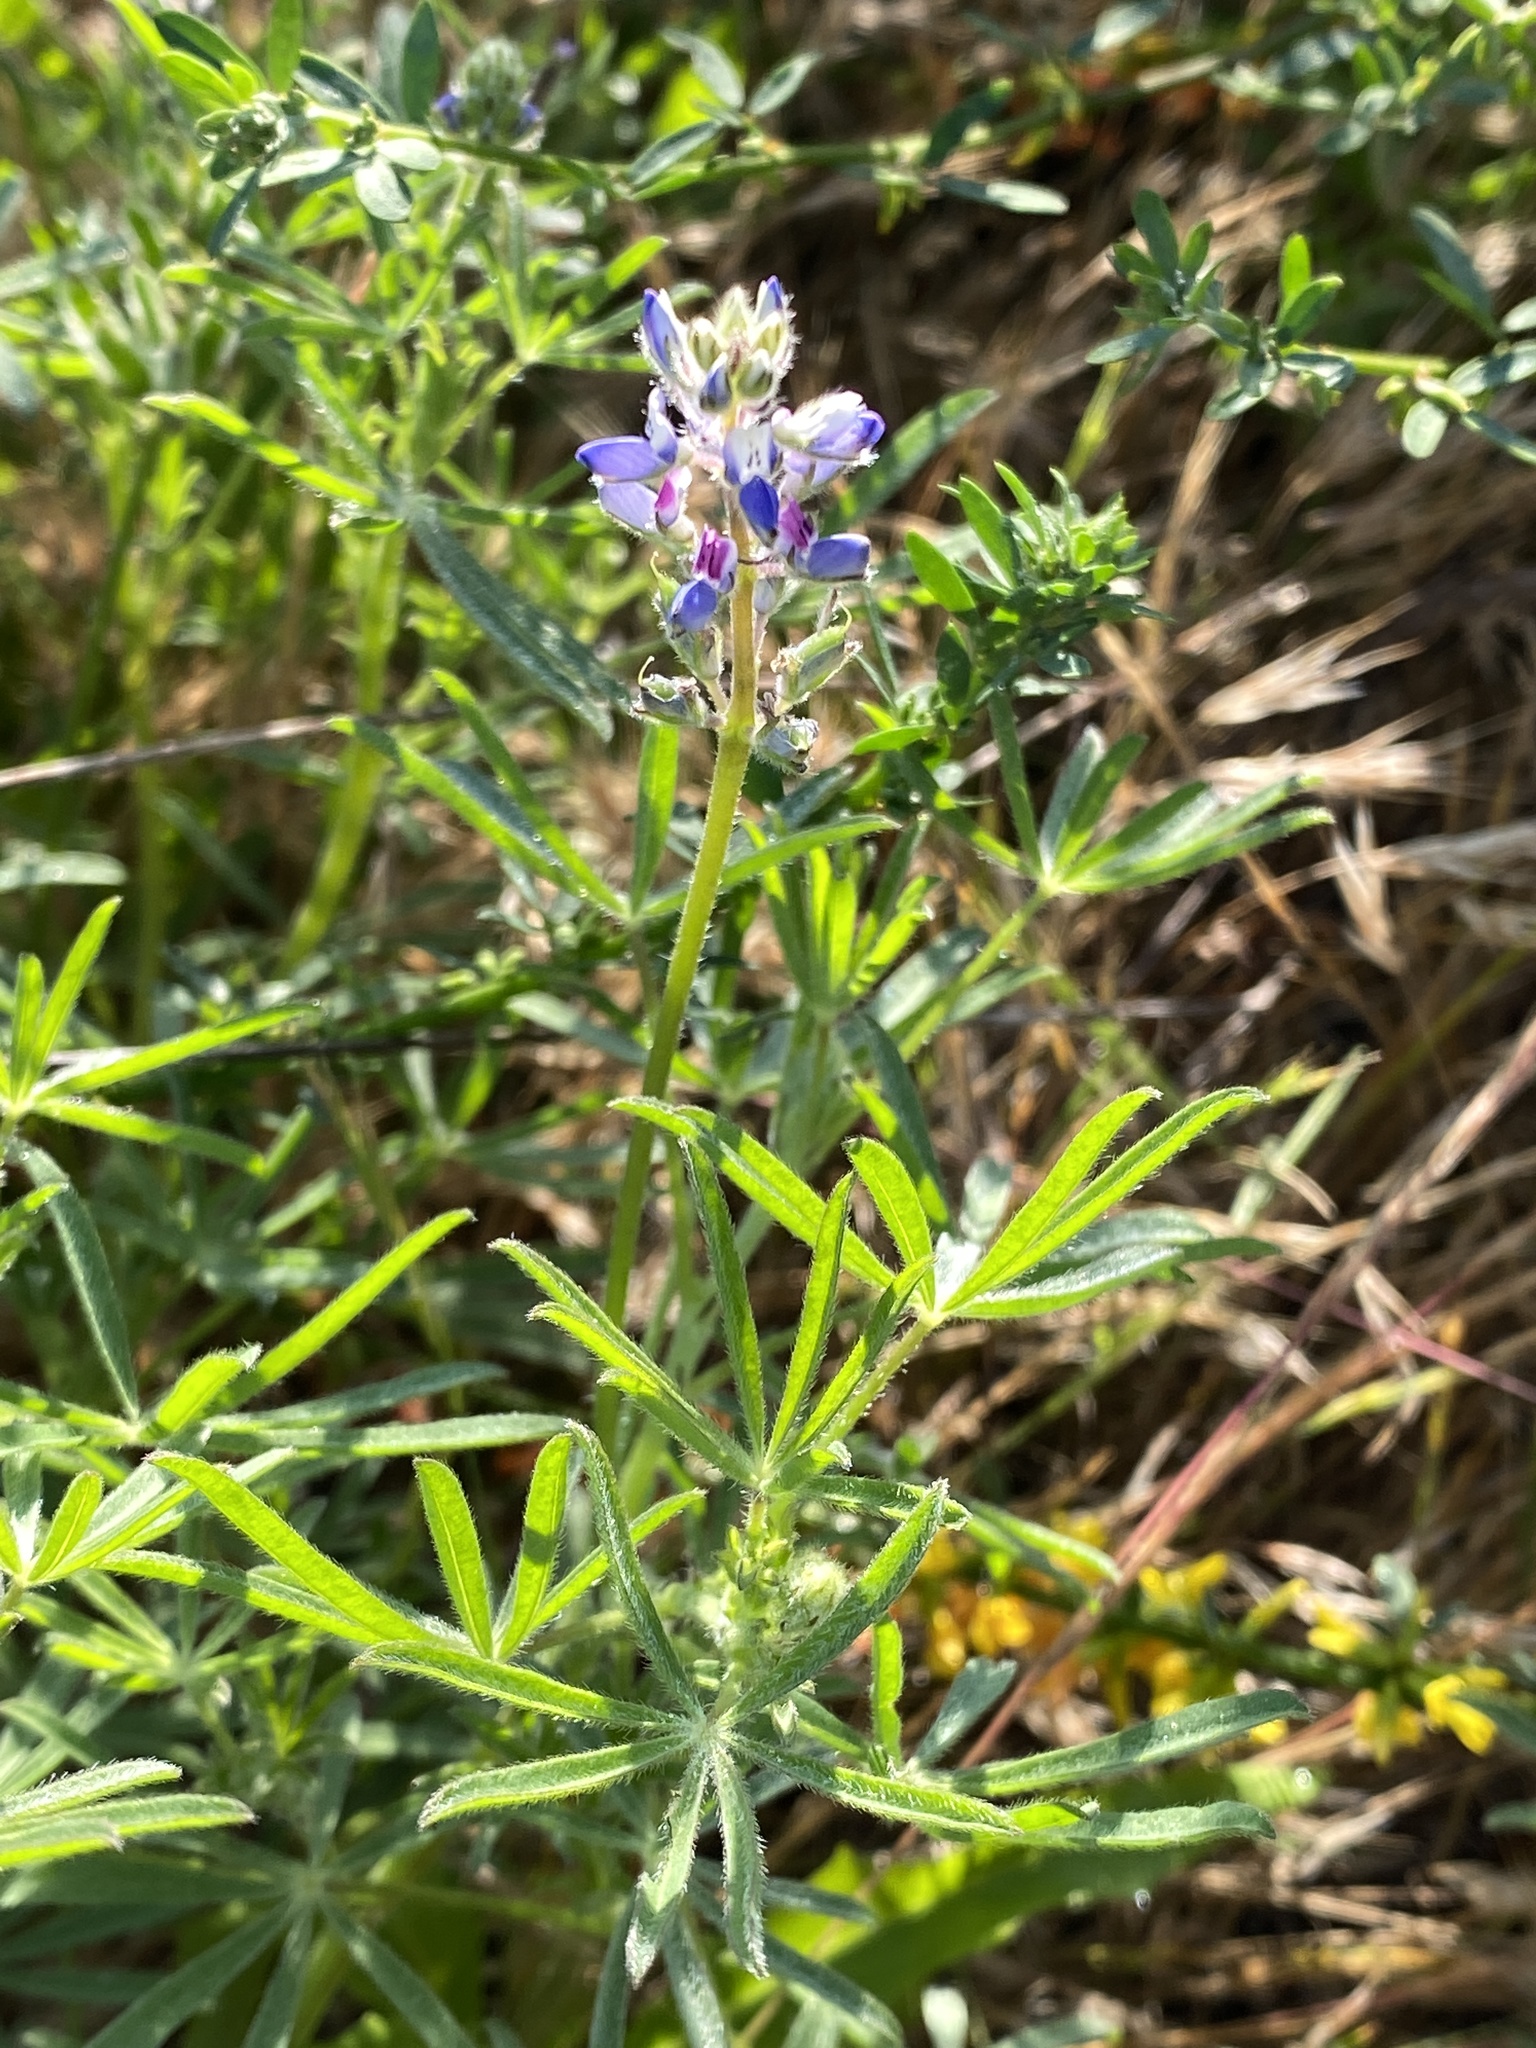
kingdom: Plantae
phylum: Tracheophyta
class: Magnoliopsida
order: Fabales
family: Fabaceae
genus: Lupinus
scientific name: Lupinus bicolor
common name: Miniature lupine
